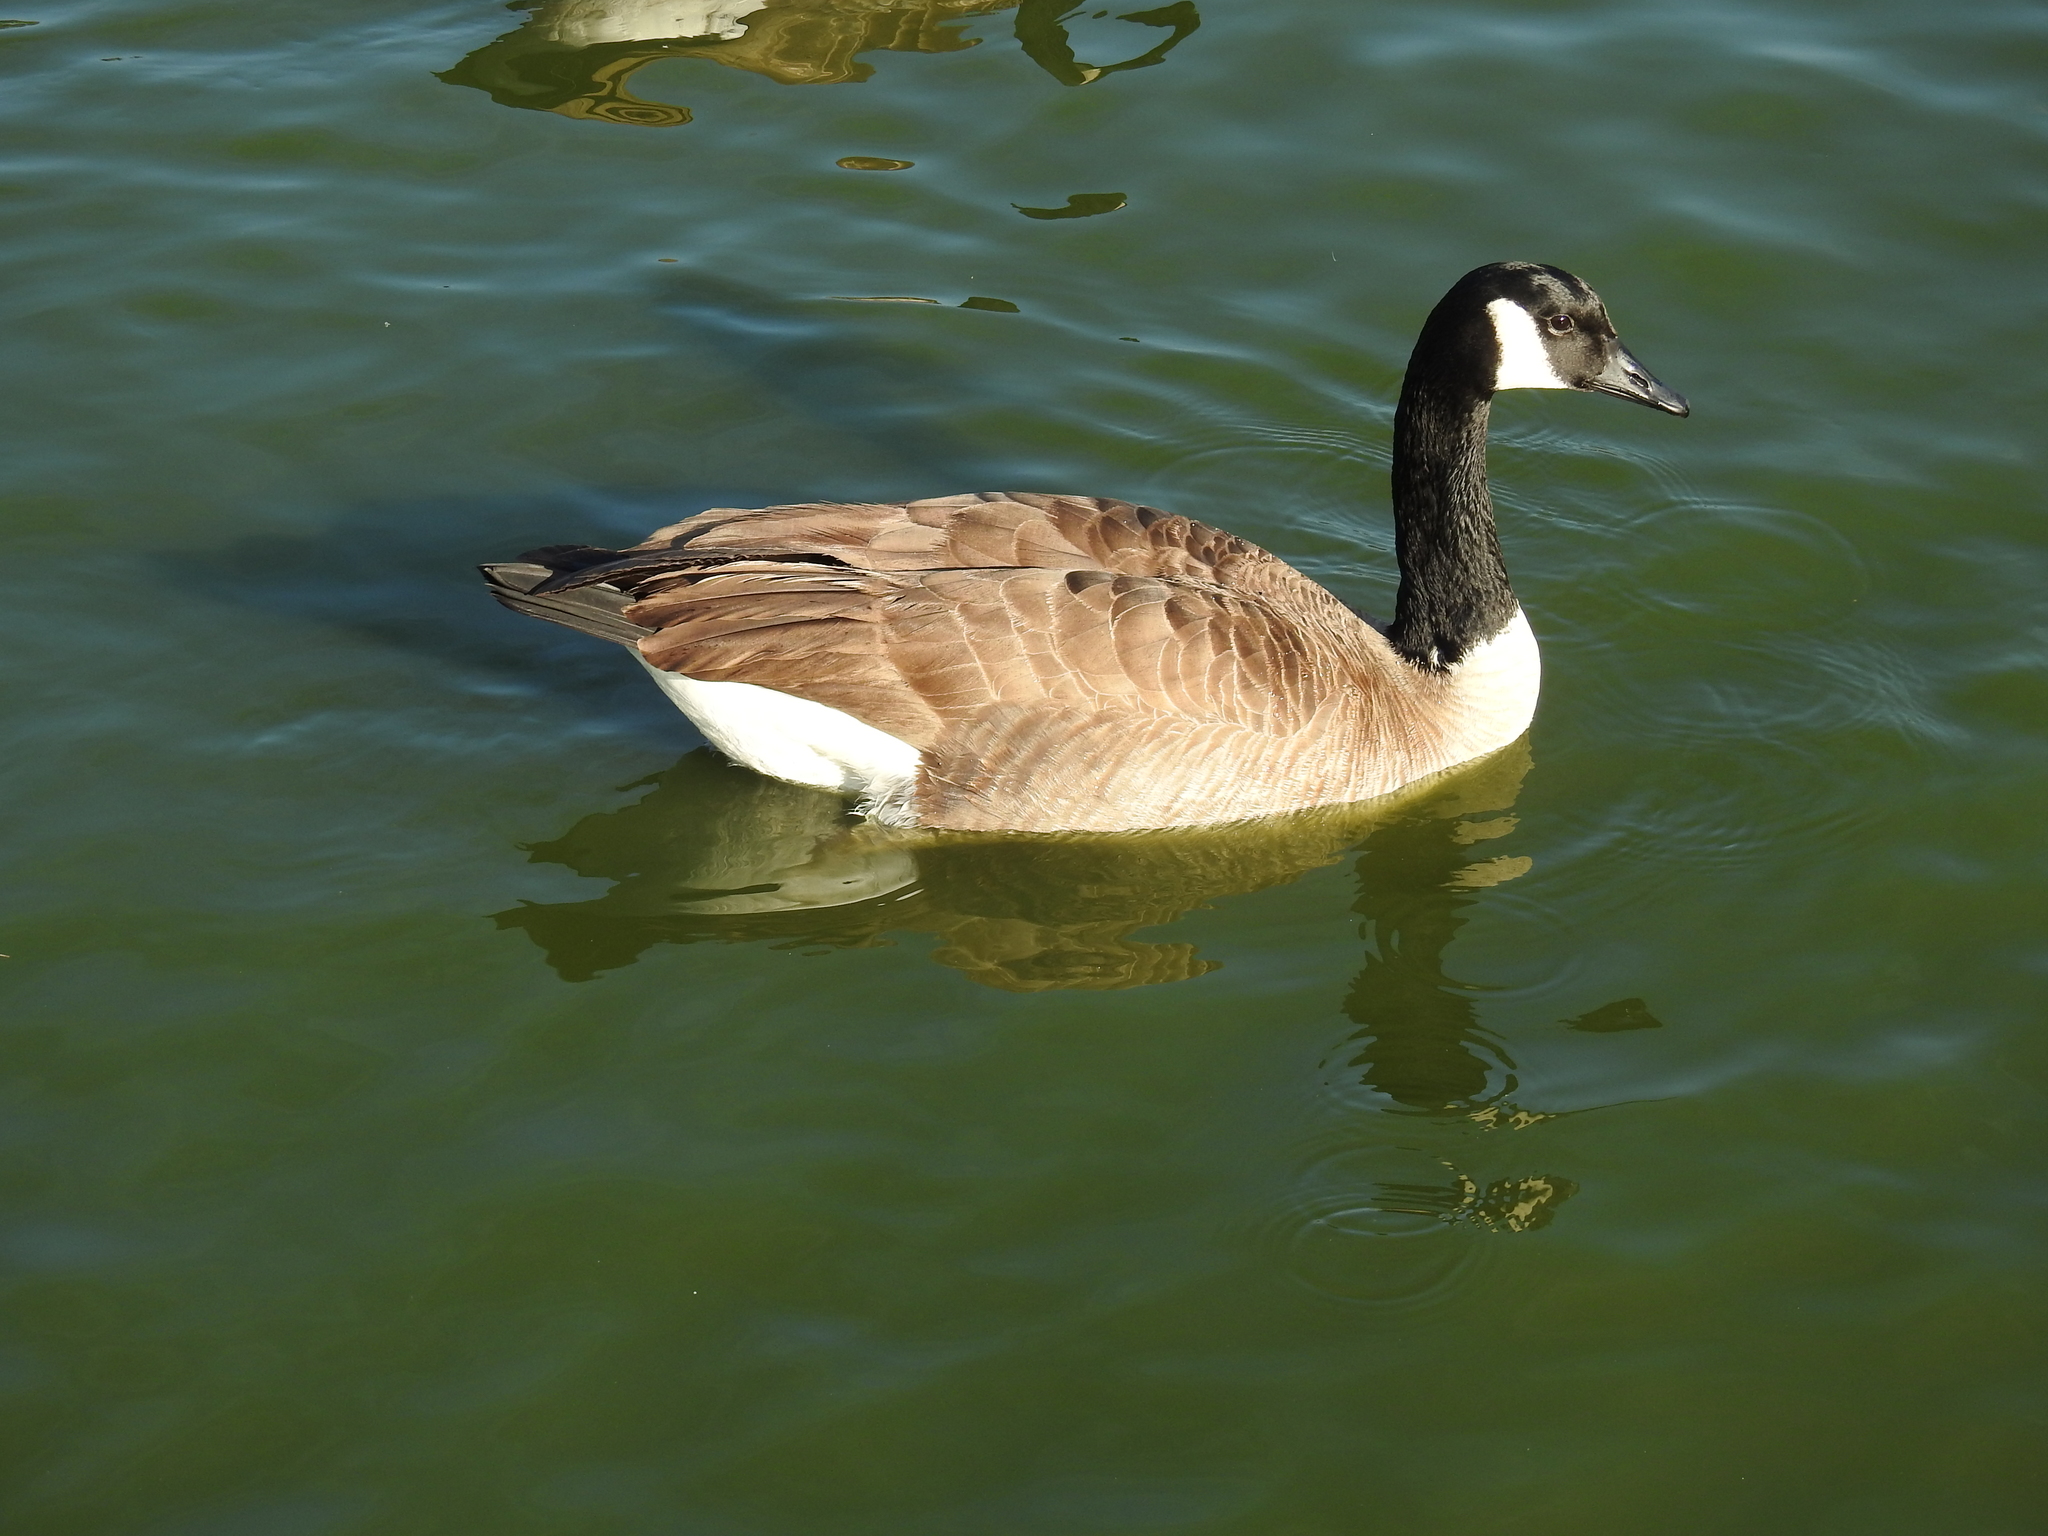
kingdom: Animalia
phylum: Chordata
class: Aves
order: Anseriformes
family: Anatidae
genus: Branta
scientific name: Branta canadensis
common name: Canada goose
